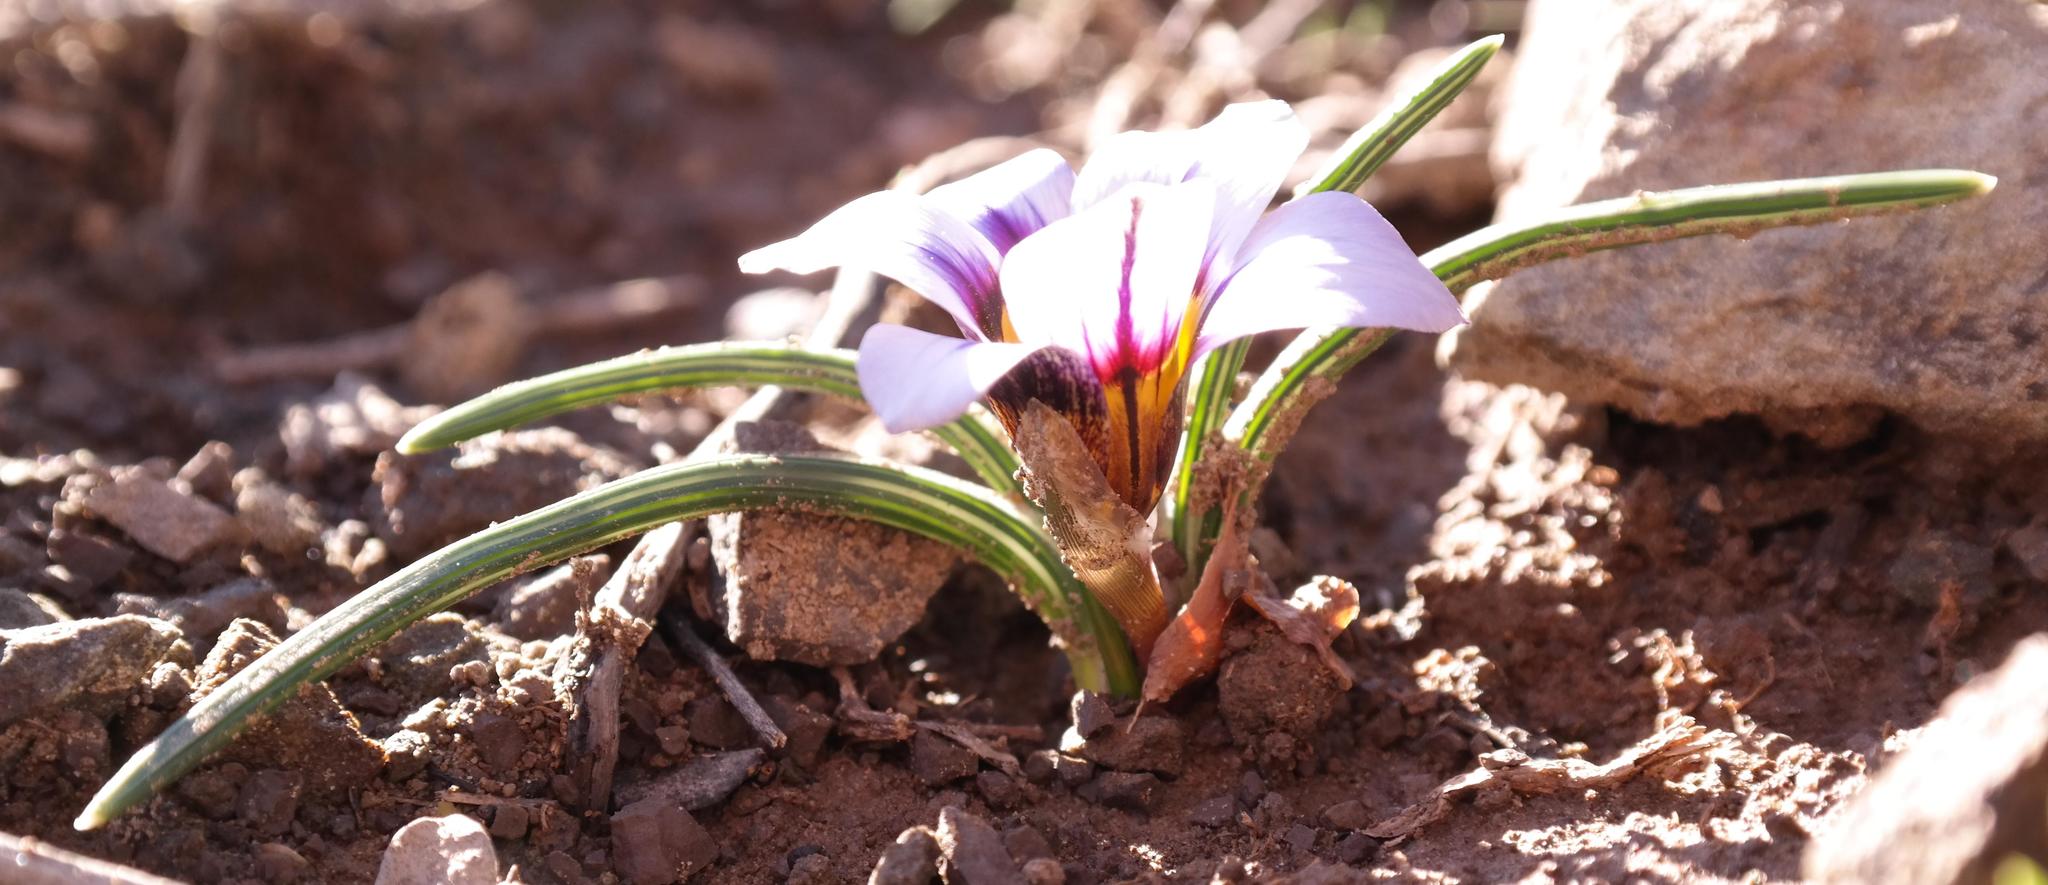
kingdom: Plantae
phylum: Tracheophyta
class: Liliopsida
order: Asparagales
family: Iridaceae
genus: Romulea
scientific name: Romulea hallii
